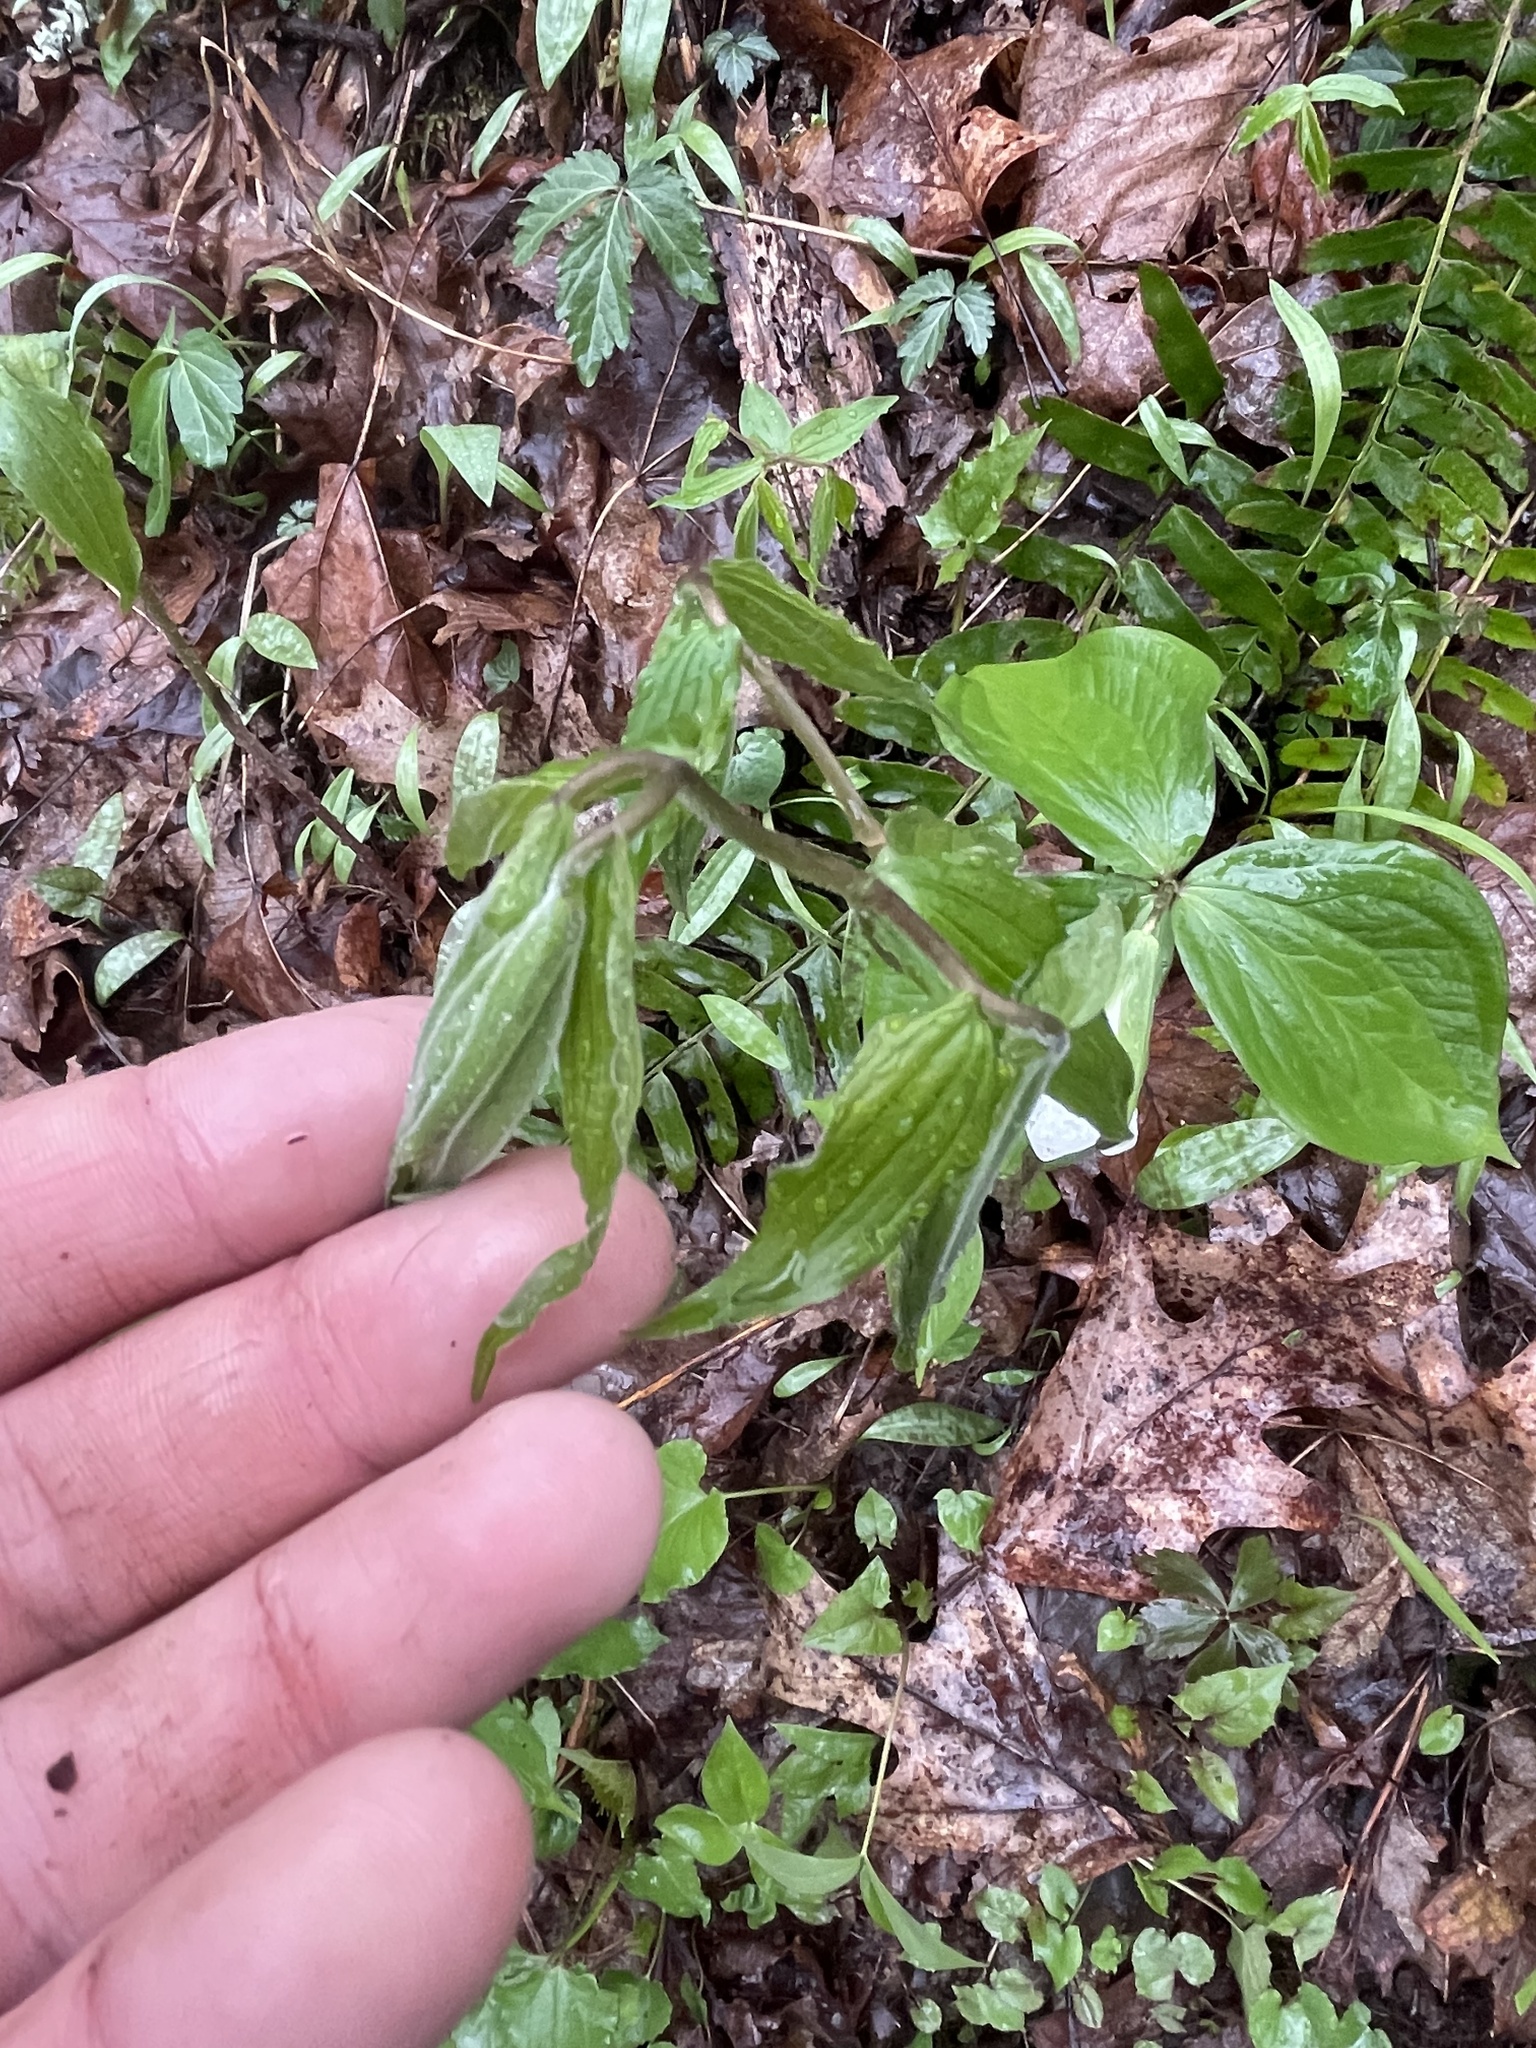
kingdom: Plantae
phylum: Tracheophyta
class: Liliopsida
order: Liliales
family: Liliaceae
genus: Prosartes
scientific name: Prosartes lanuginosa
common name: Hairy mandarin
